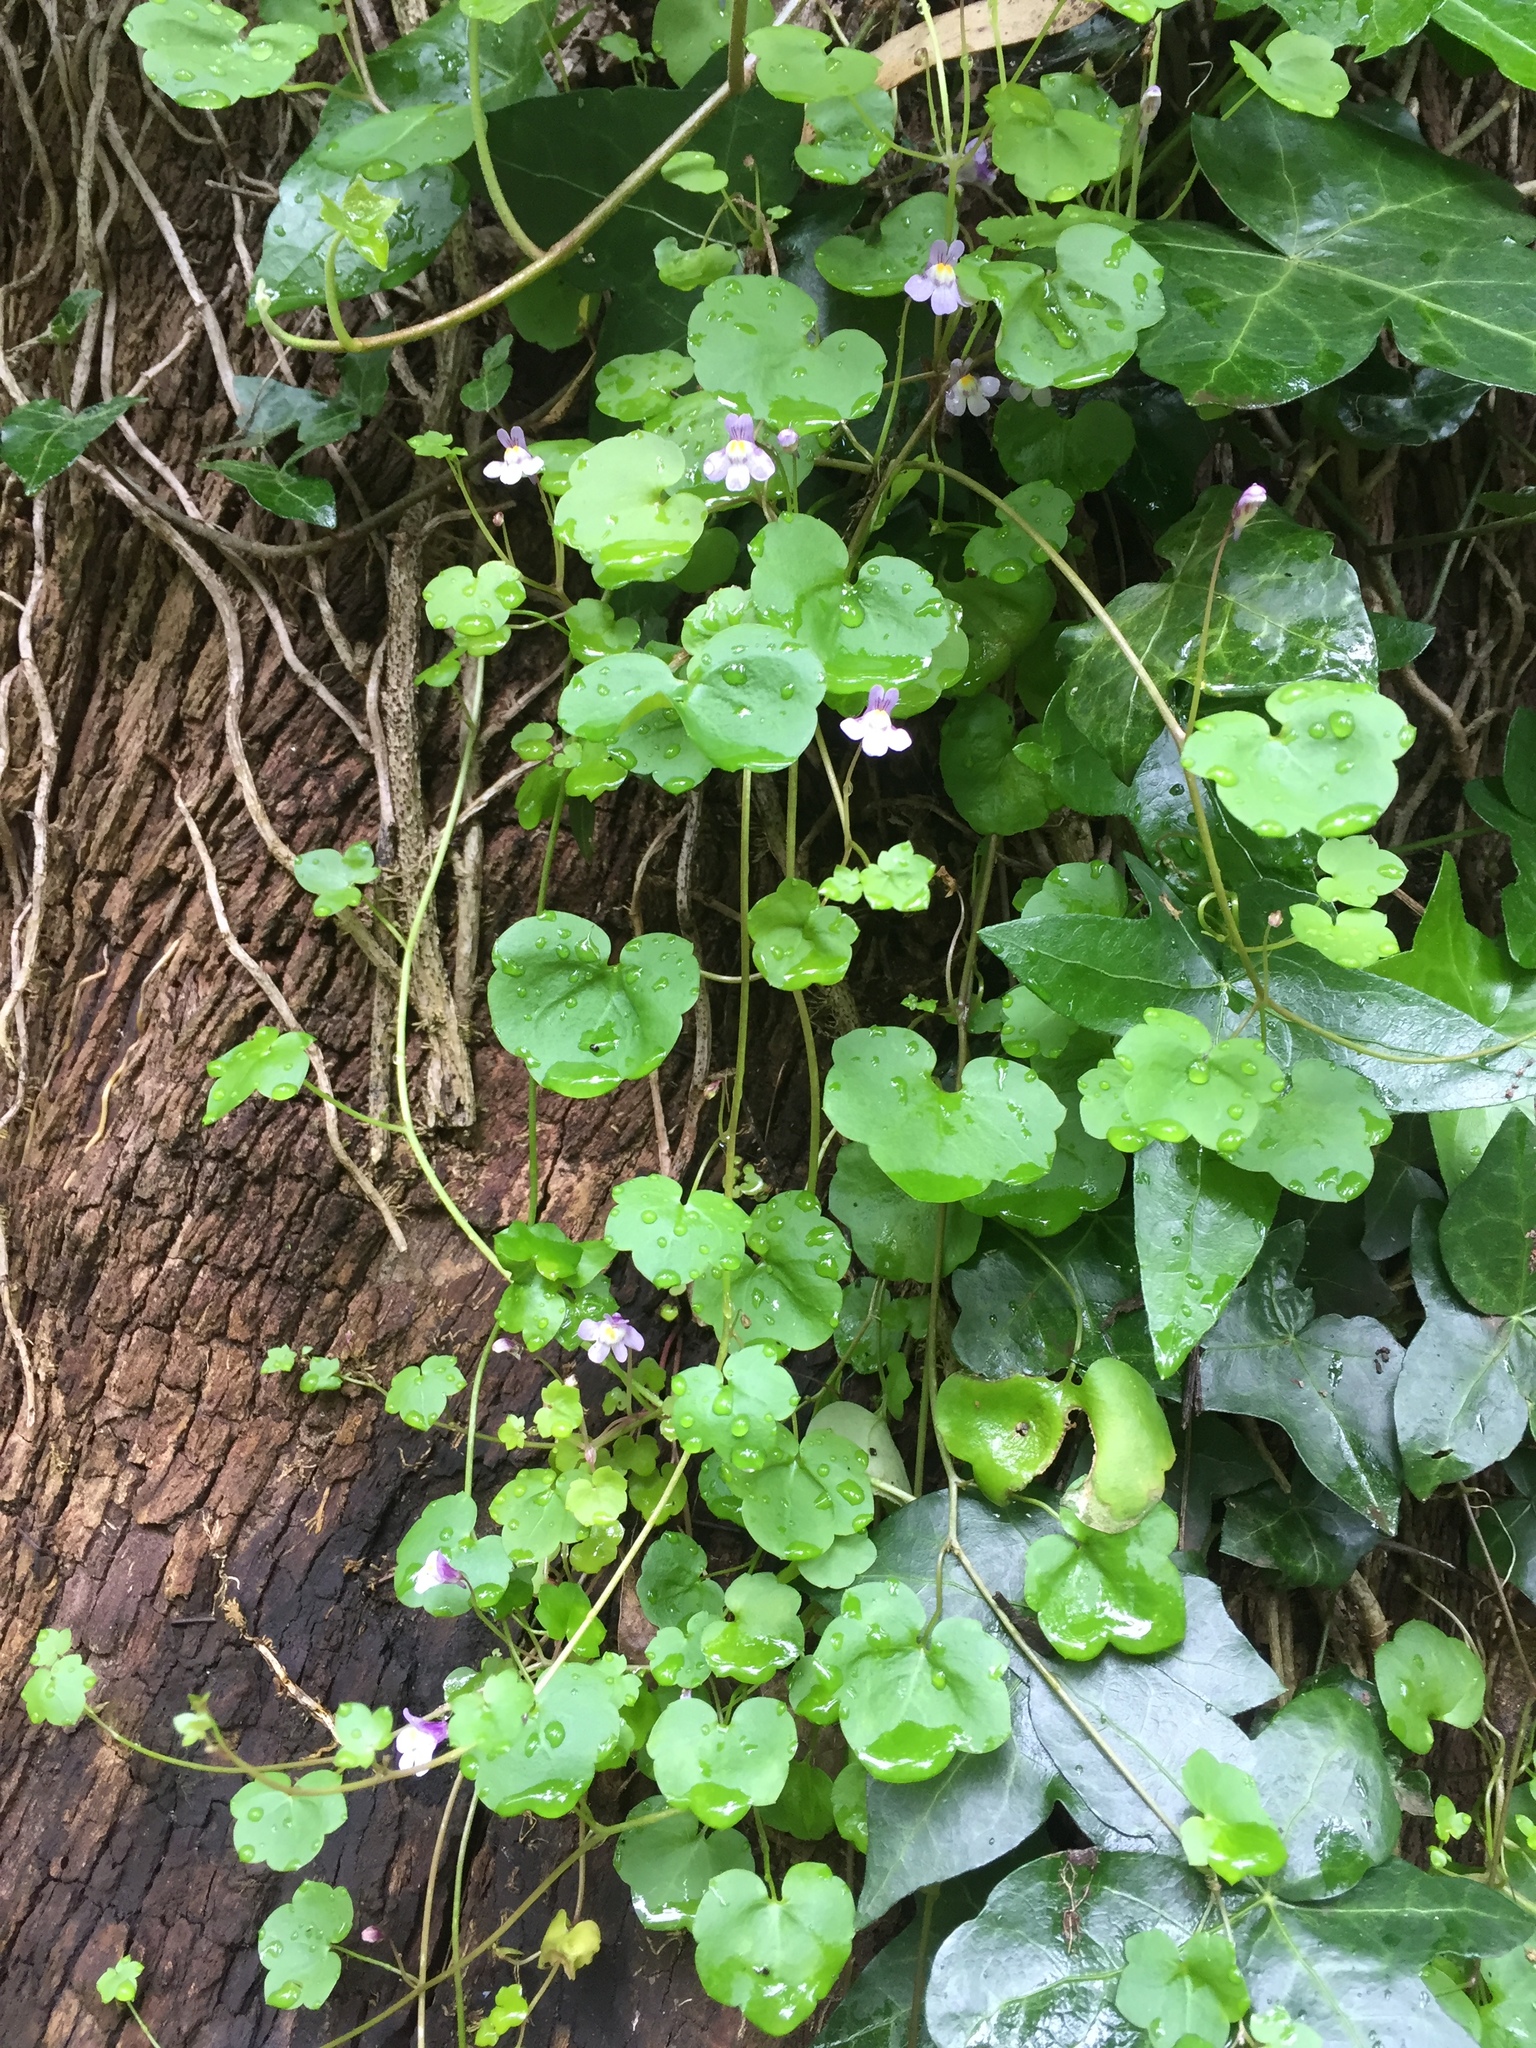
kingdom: Plantae
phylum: Tracheophyta
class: Magnoliopsida
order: Lamiales
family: Plantaginaceae
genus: Cymbalaria
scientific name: Cymbalaria muralis
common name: Ivy-leaved toadflax
